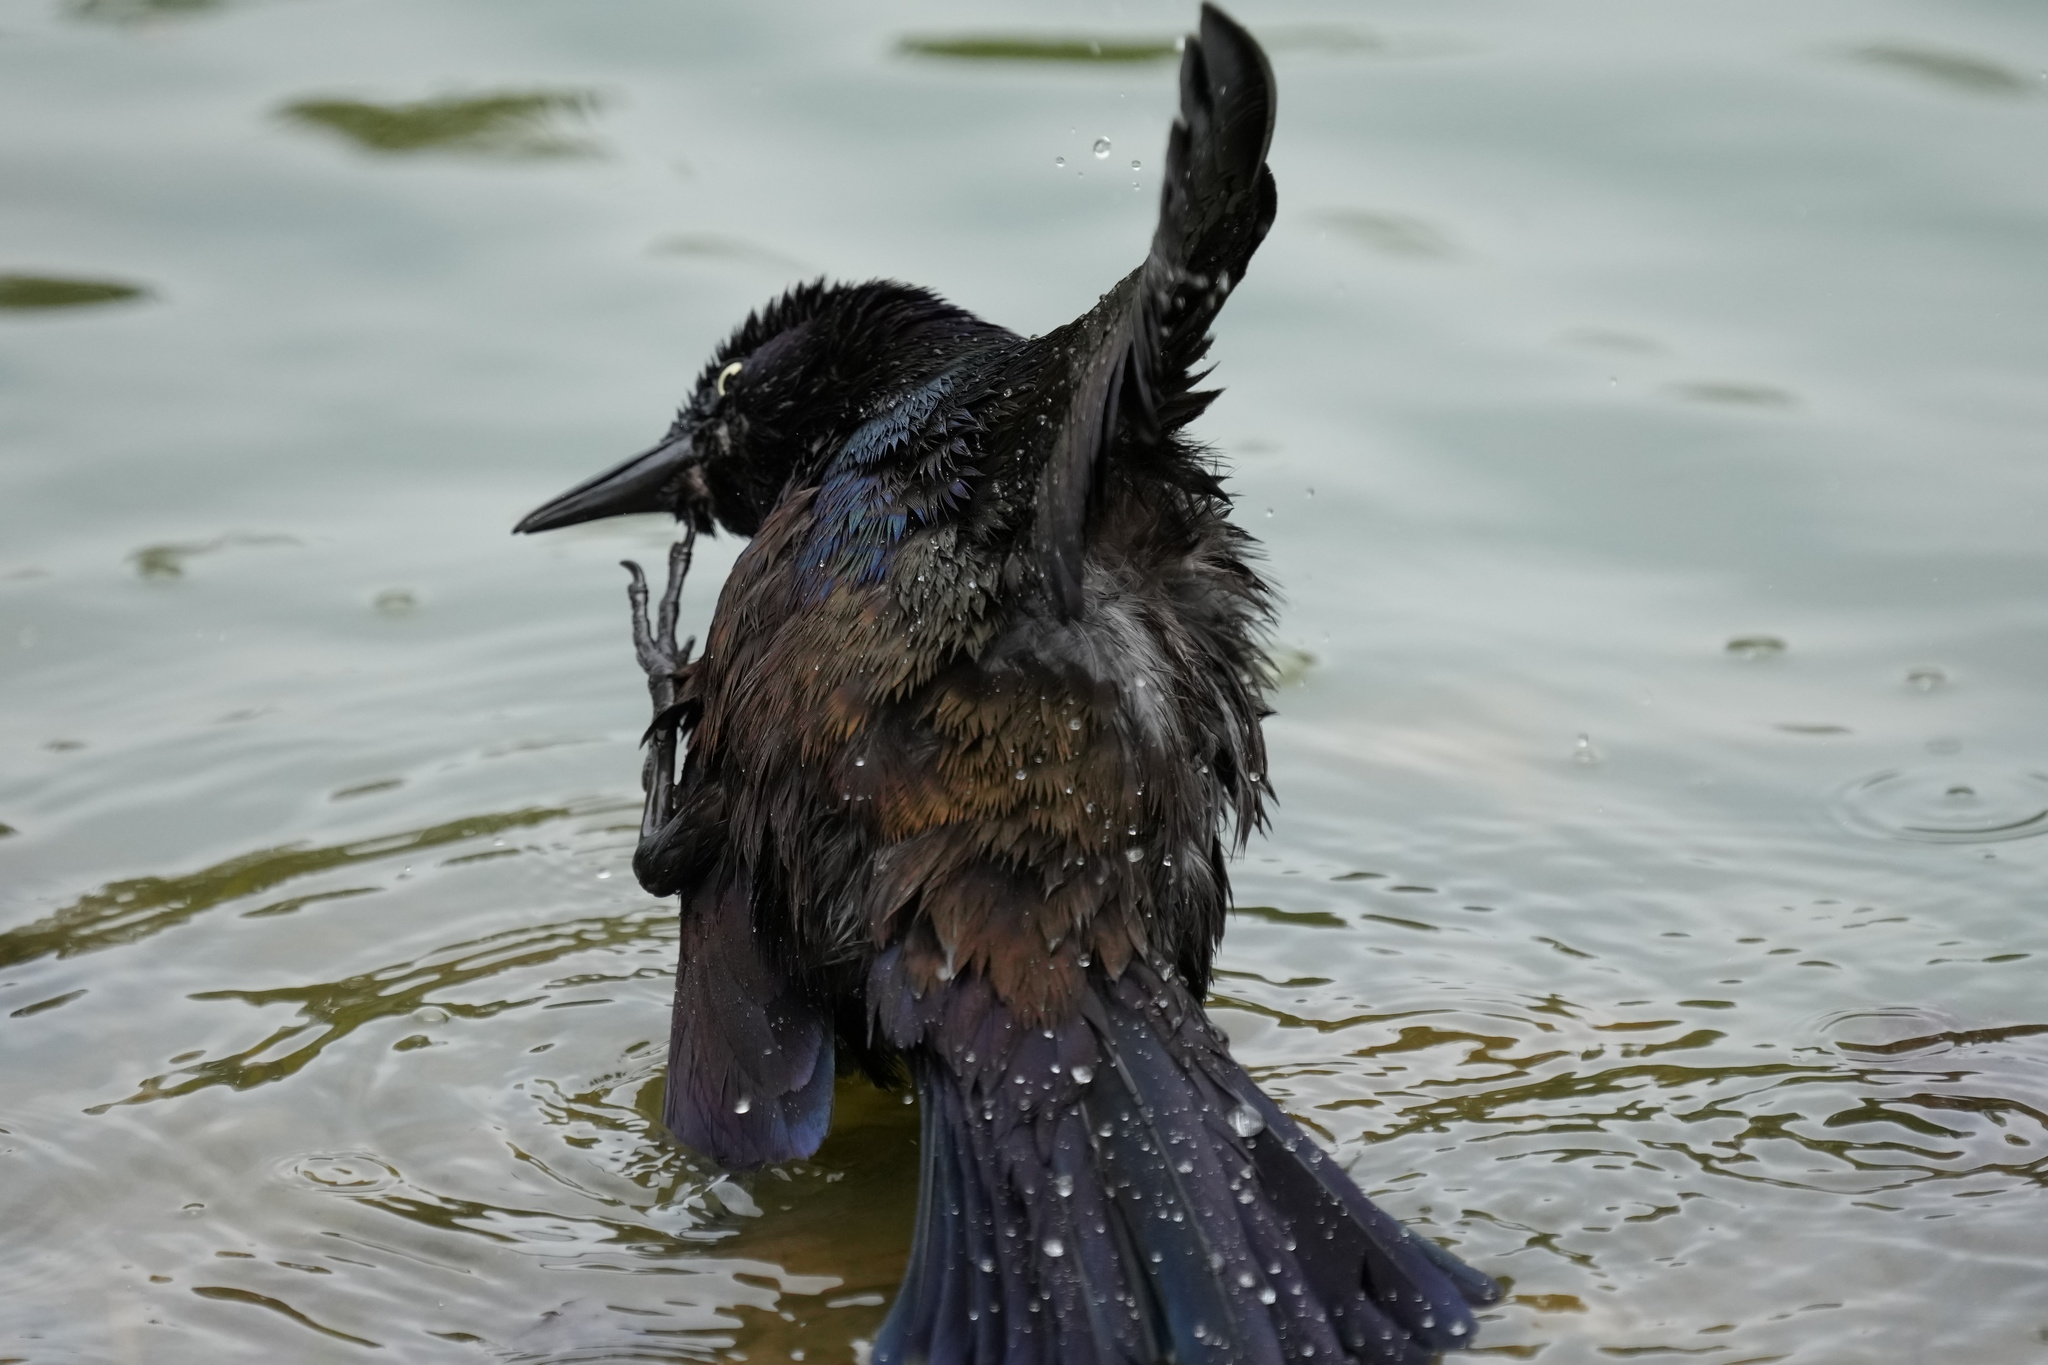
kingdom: Animalia
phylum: Chordata
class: Aves
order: Passeriformes
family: Icteridae
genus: Quiscalus
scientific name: Quiscalus quiscula
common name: Common grackle
